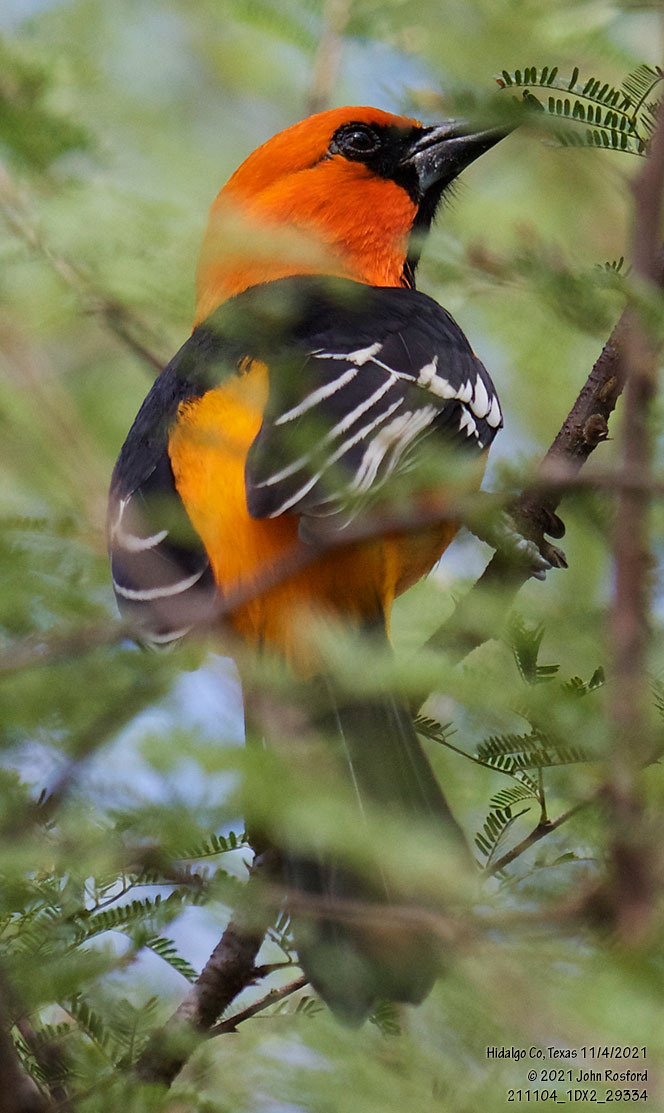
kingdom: Animalia
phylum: Chordata
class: Aves
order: Passeriformes
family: Icteridae
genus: Icterus
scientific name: Icterus gularis
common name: Altamira oriole
